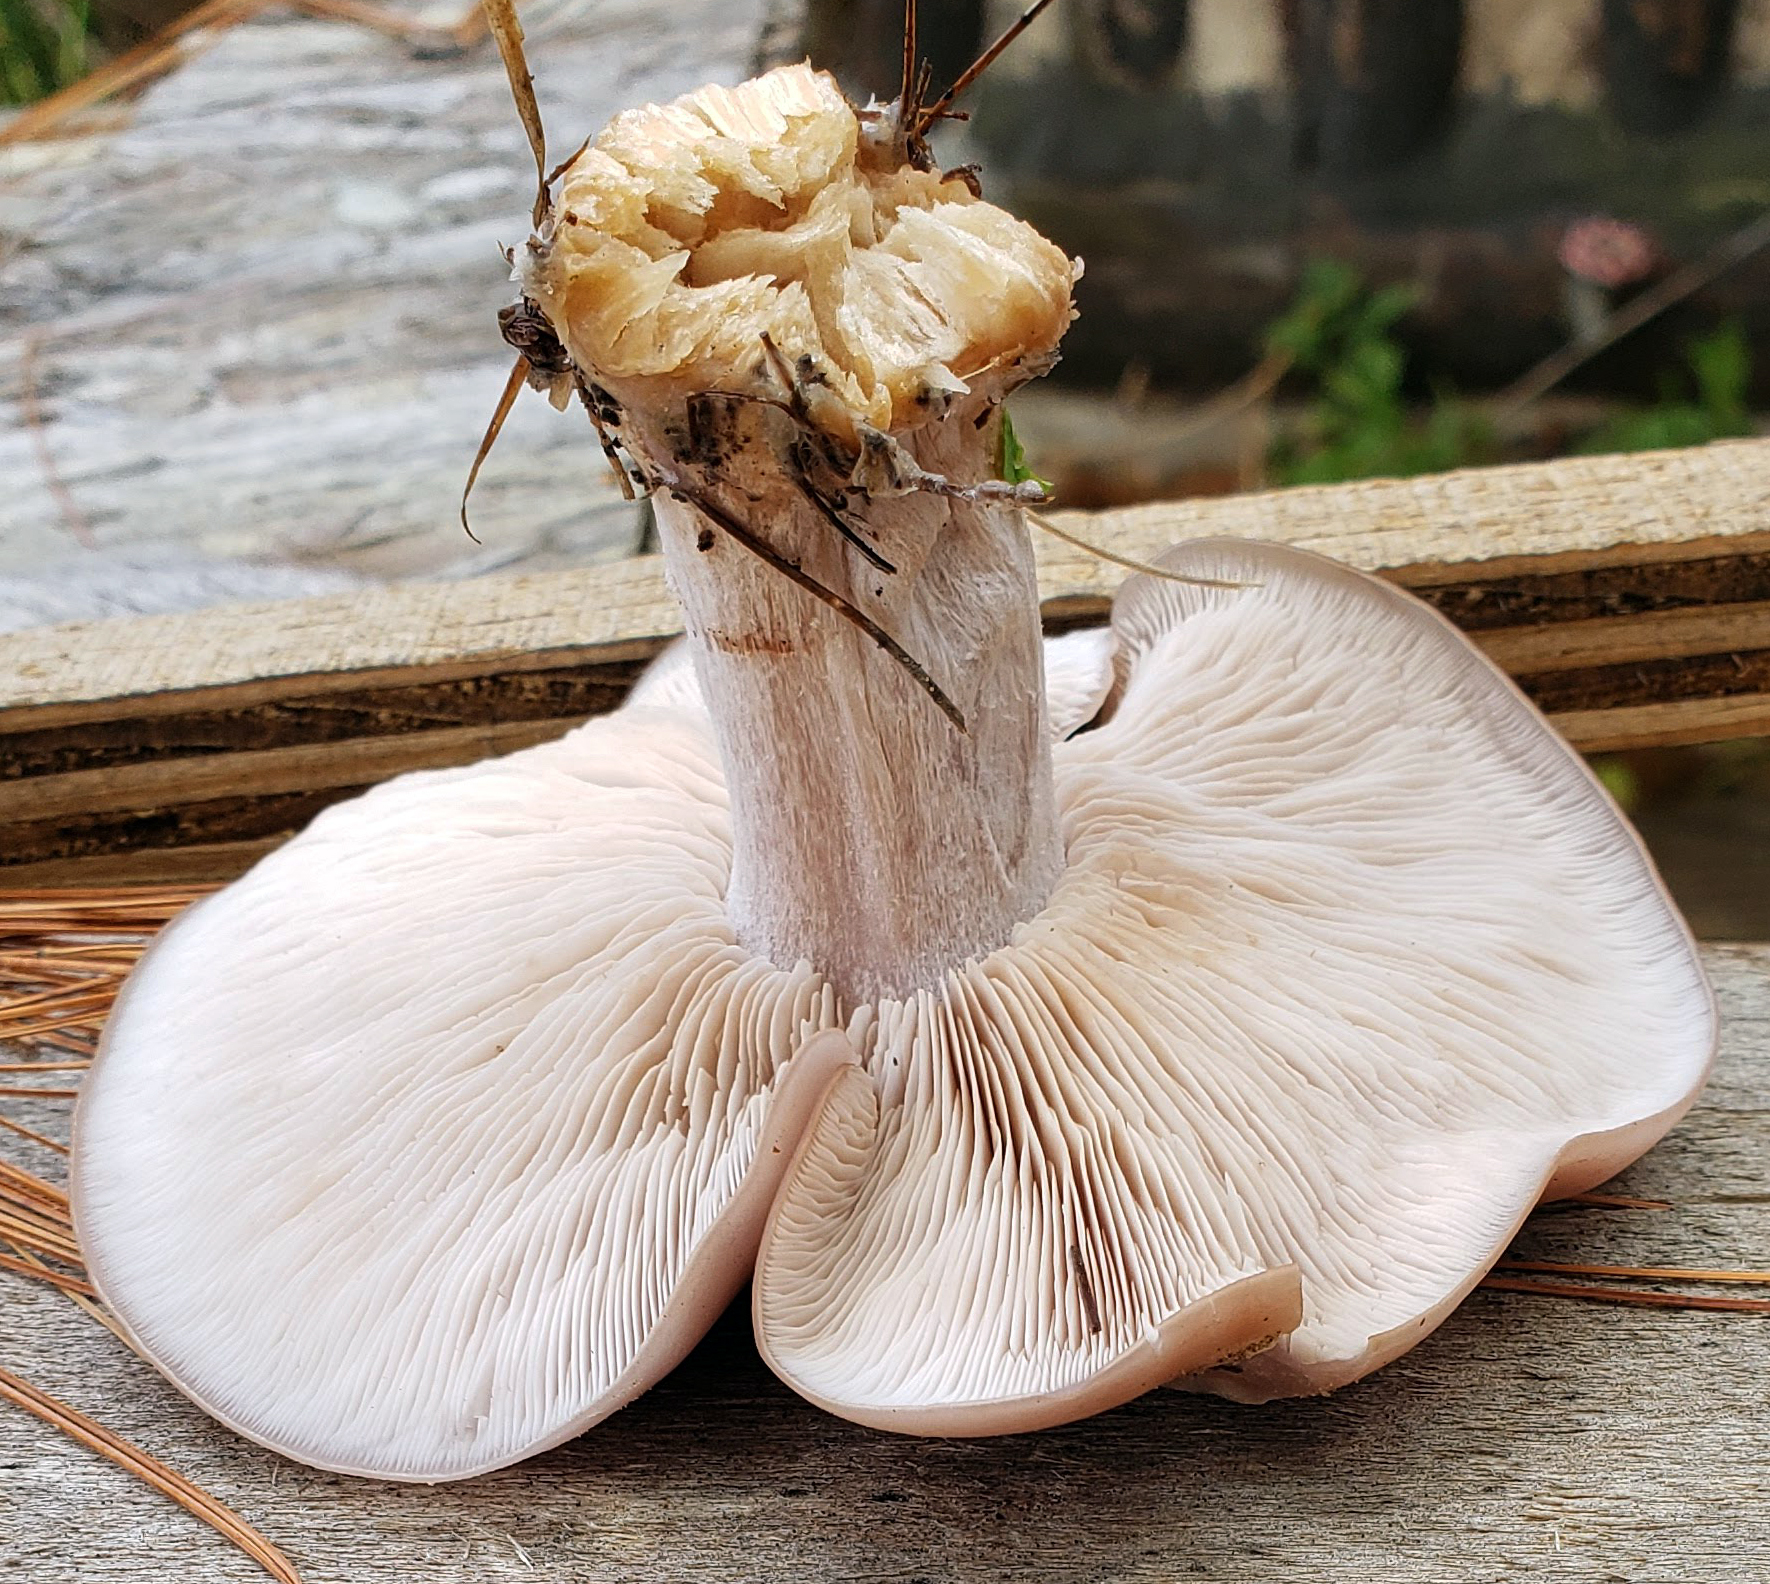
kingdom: Fungi
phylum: Basidiomycota
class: Agaricomycetes
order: Agaricales
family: Tricholomataceae
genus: Collybia
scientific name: Collybia
